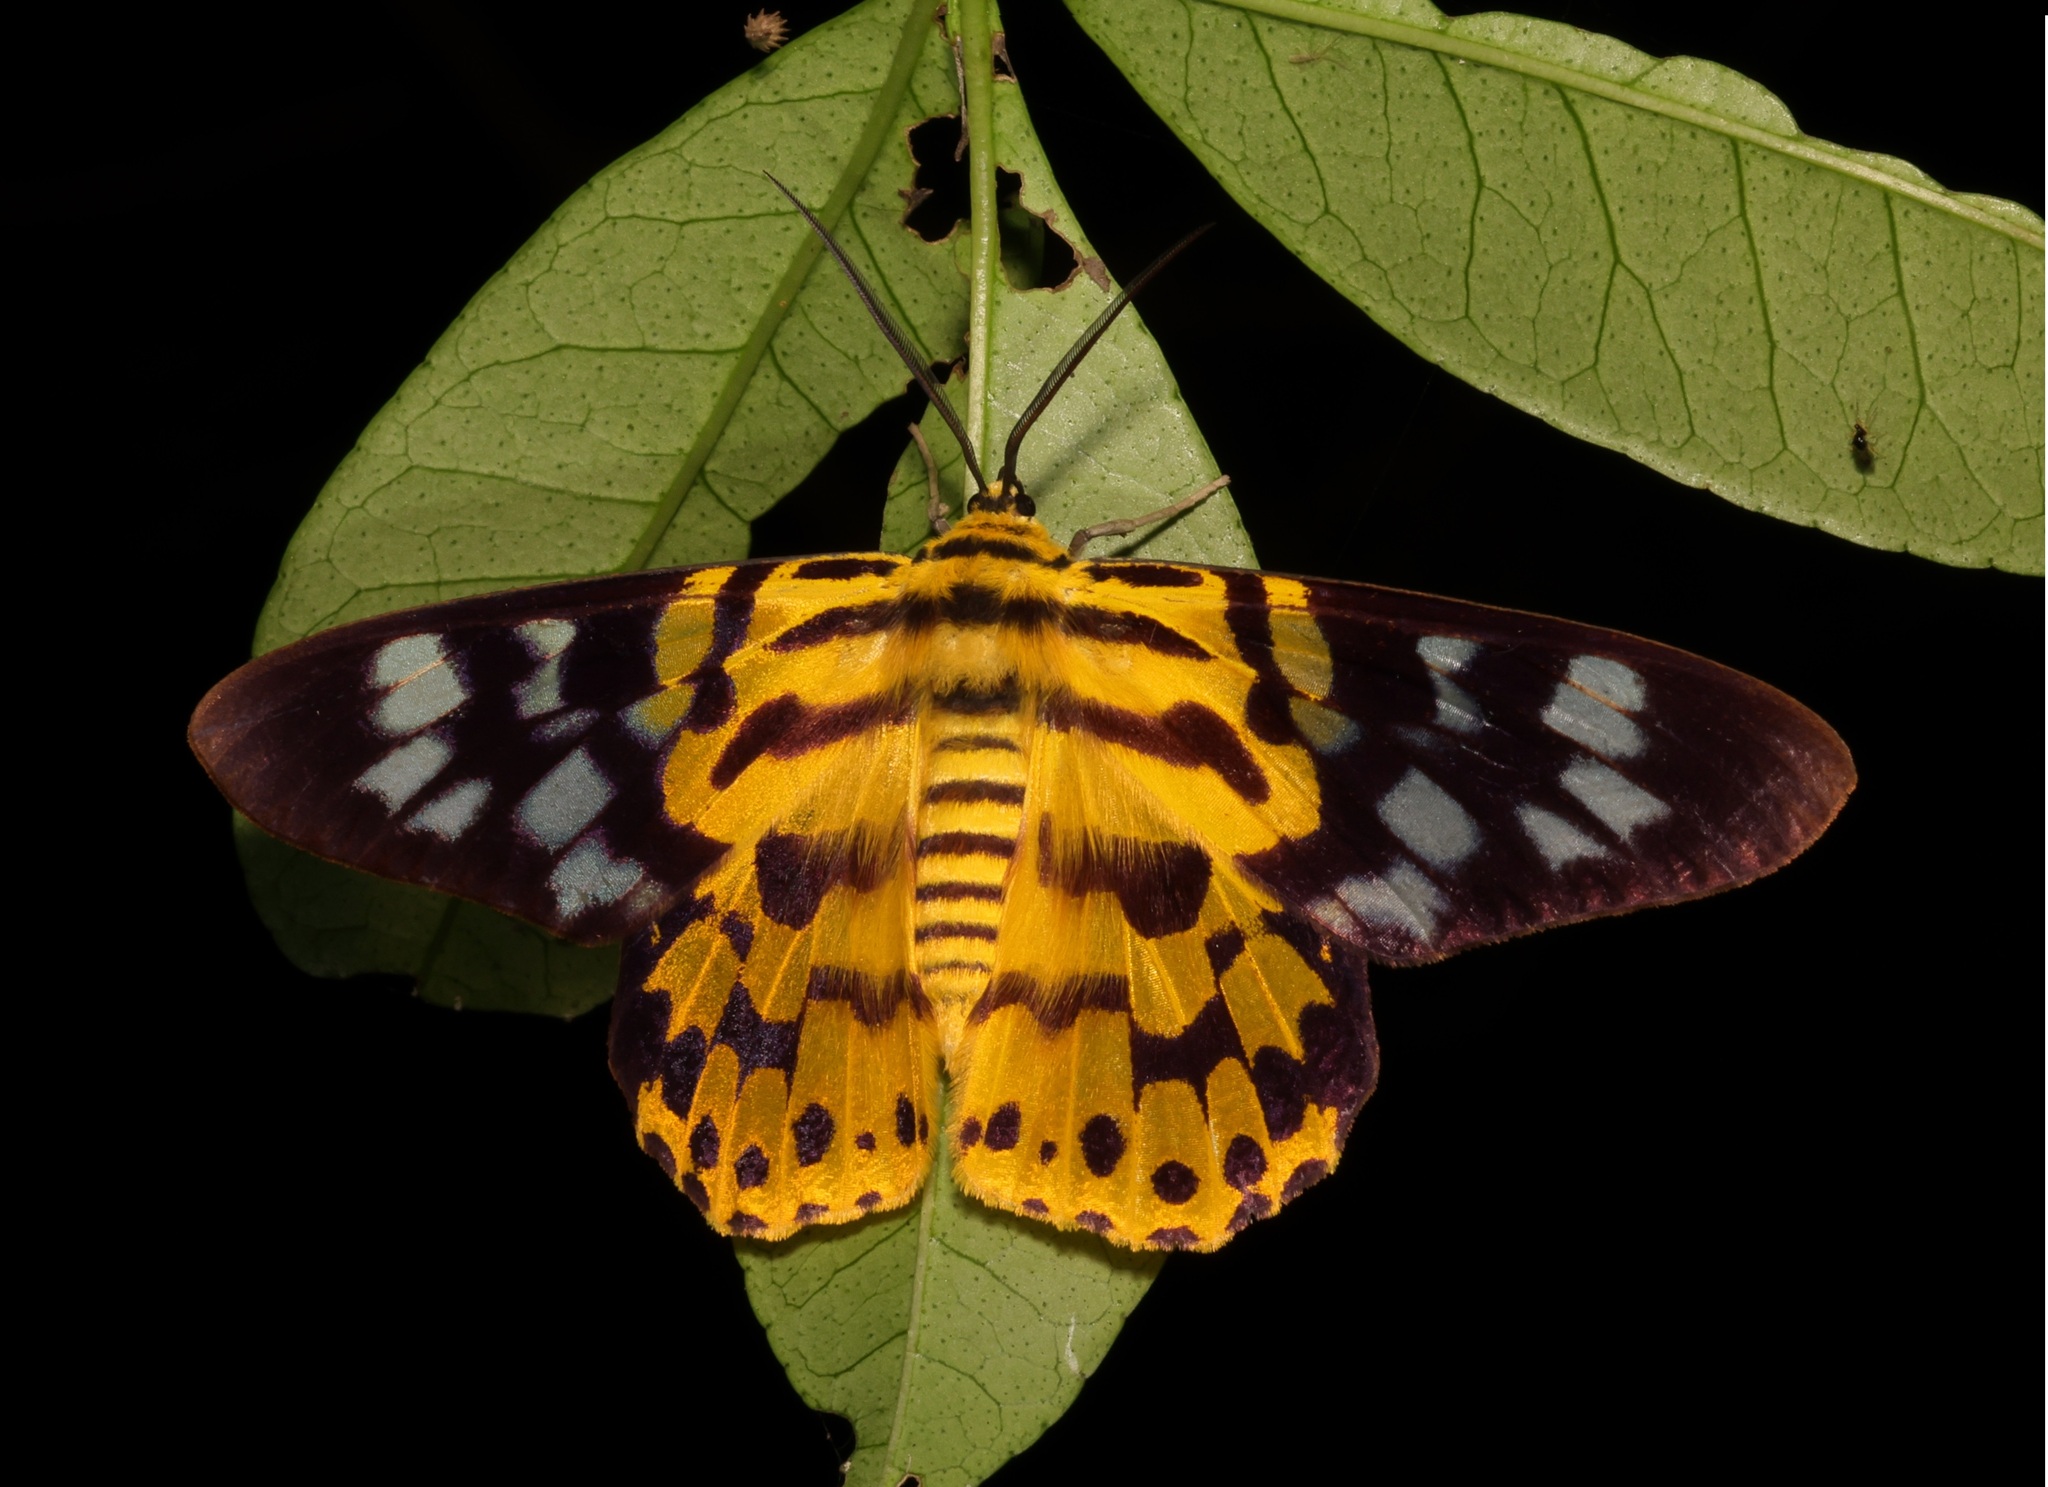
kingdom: Animalia
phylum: Arthropoda
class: Insecta
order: Lepidoptera
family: Geometridae
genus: Dysphania
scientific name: Dysphania militaris
